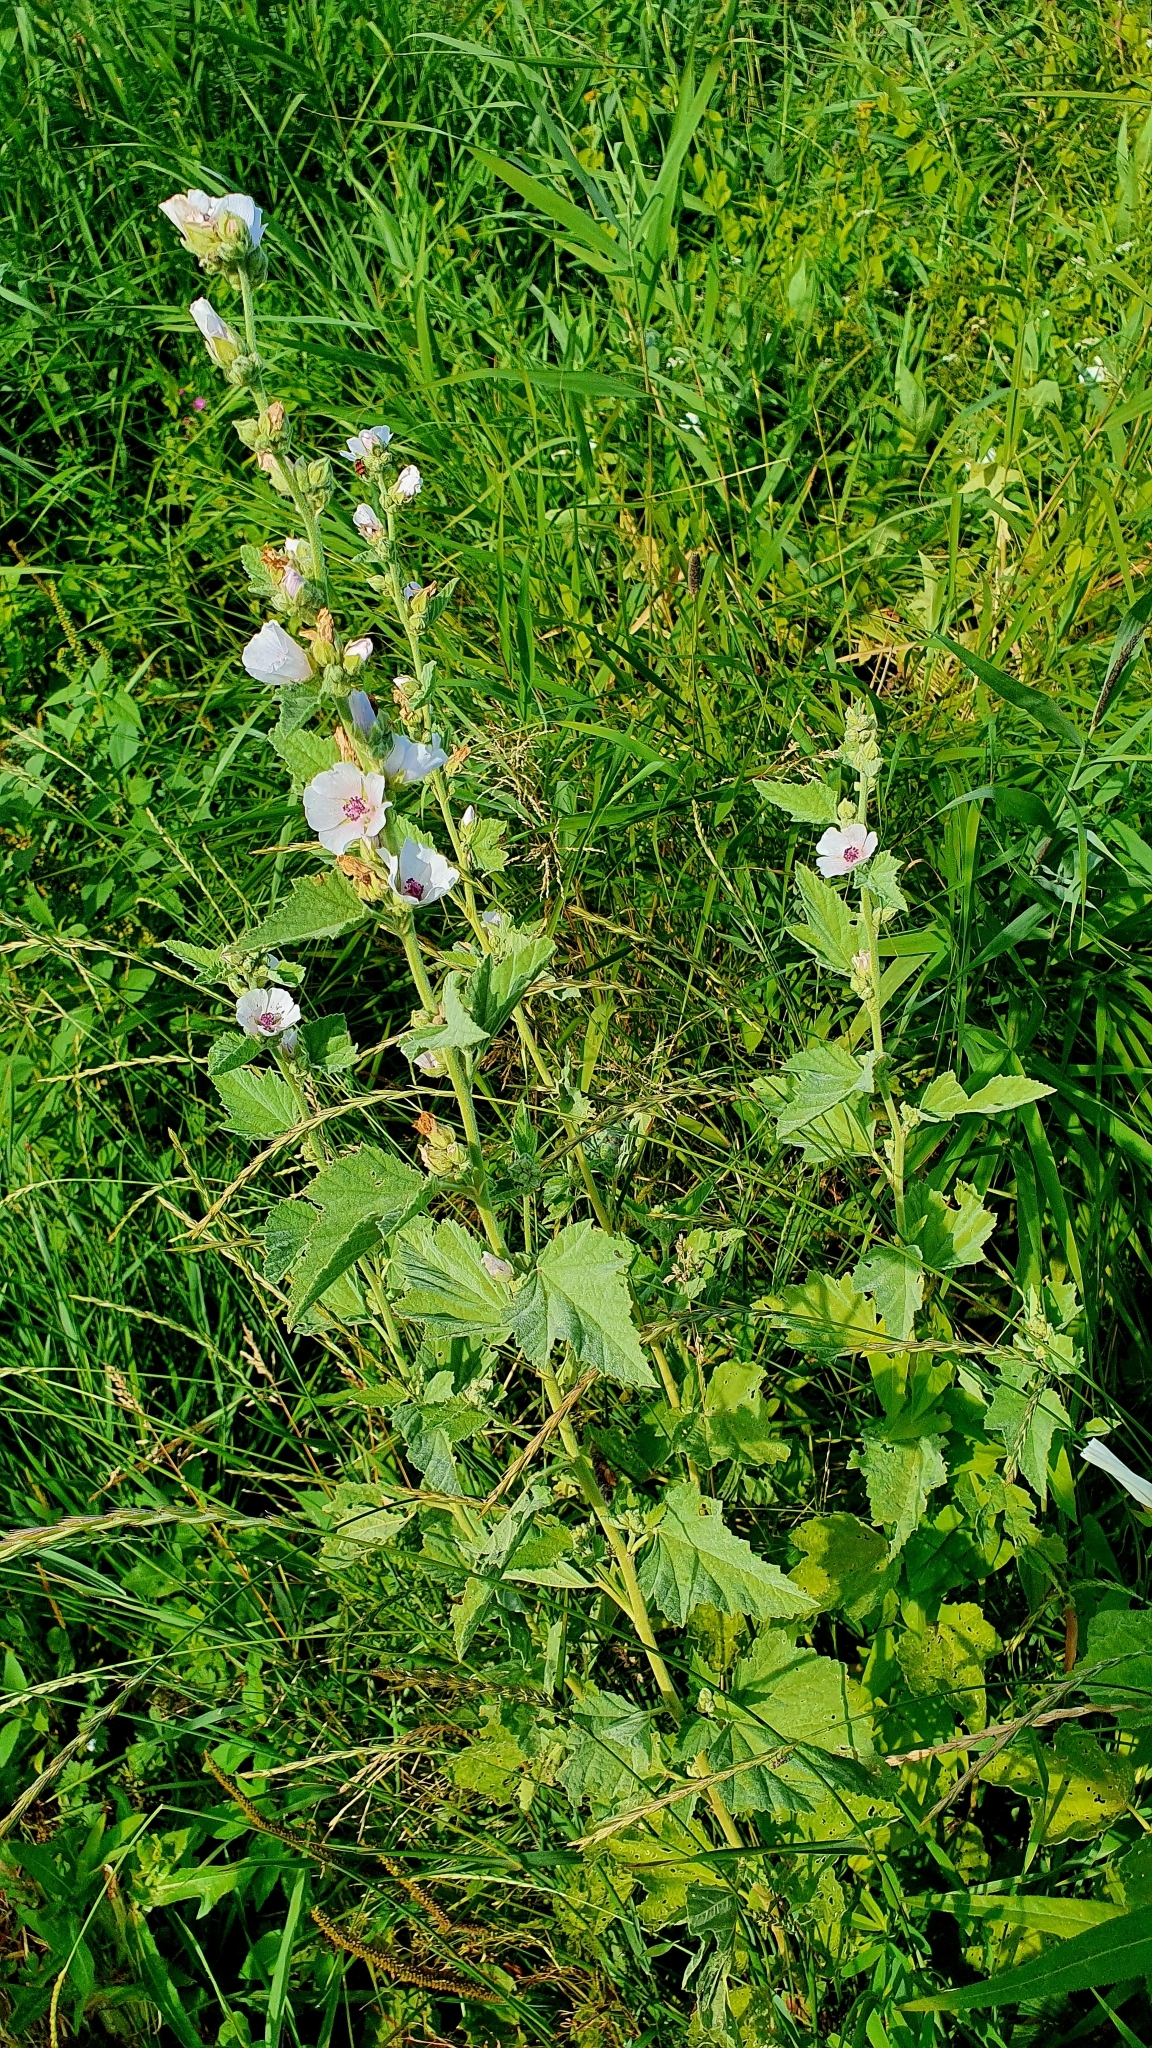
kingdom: Plantae
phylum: Tracheophyta
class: Magnoliopsida
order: Malvales
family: Malvaceae
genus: Althaea
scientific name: Althaea officinalis
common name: Marsh-mallow
